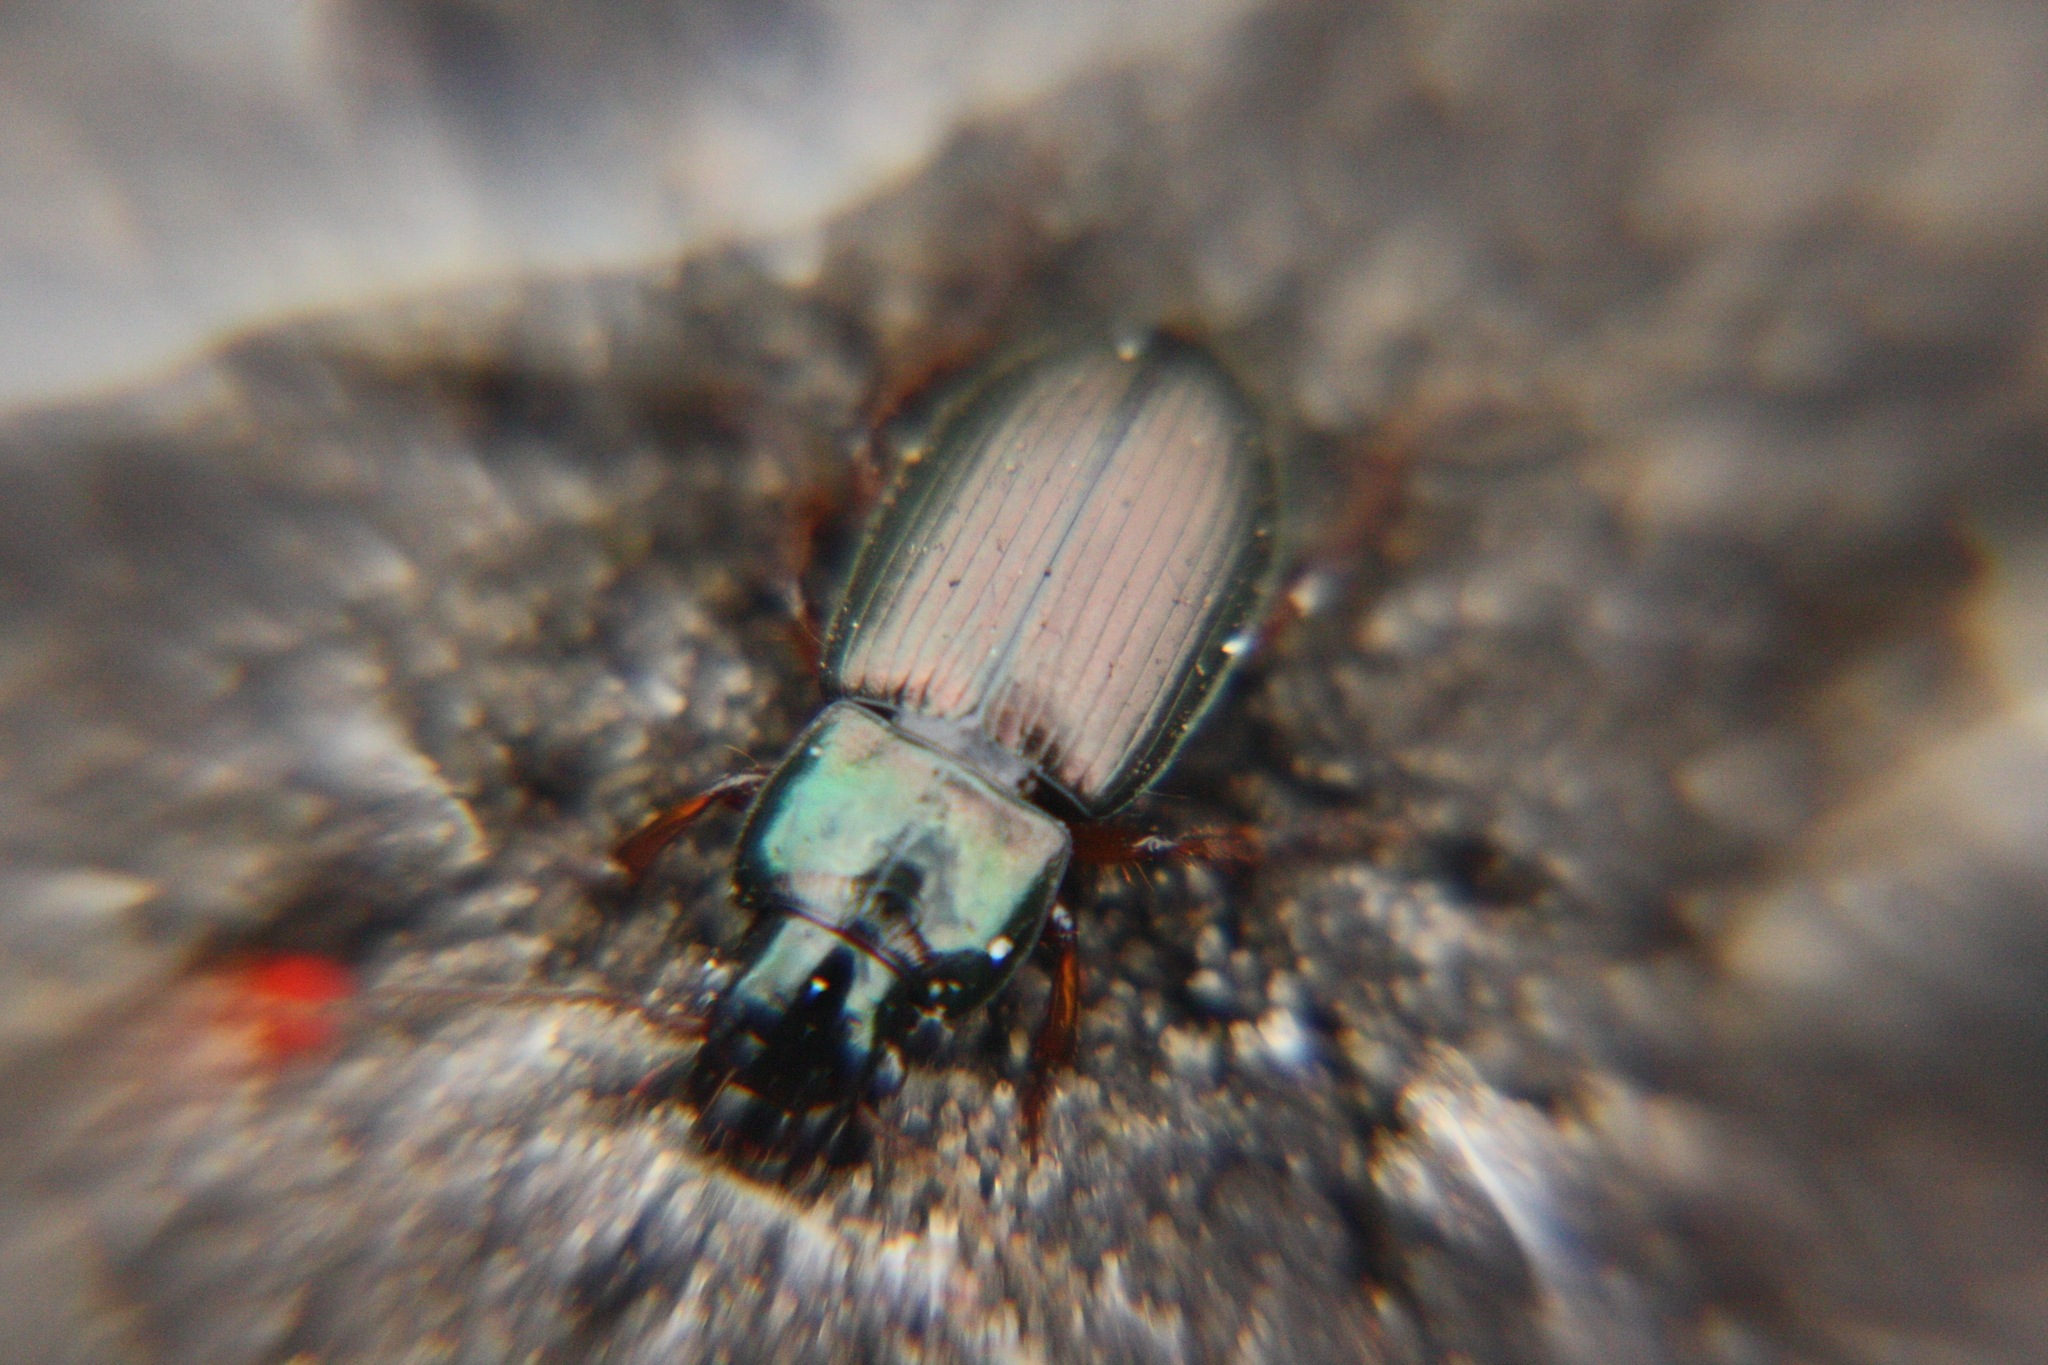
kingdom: Animalia
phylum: Arthropoda
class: Insecta
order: Coleoptera
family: Carabidae
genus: Harpalus
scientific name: Harpalus affinis
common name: Polychrome harp ground beetle
